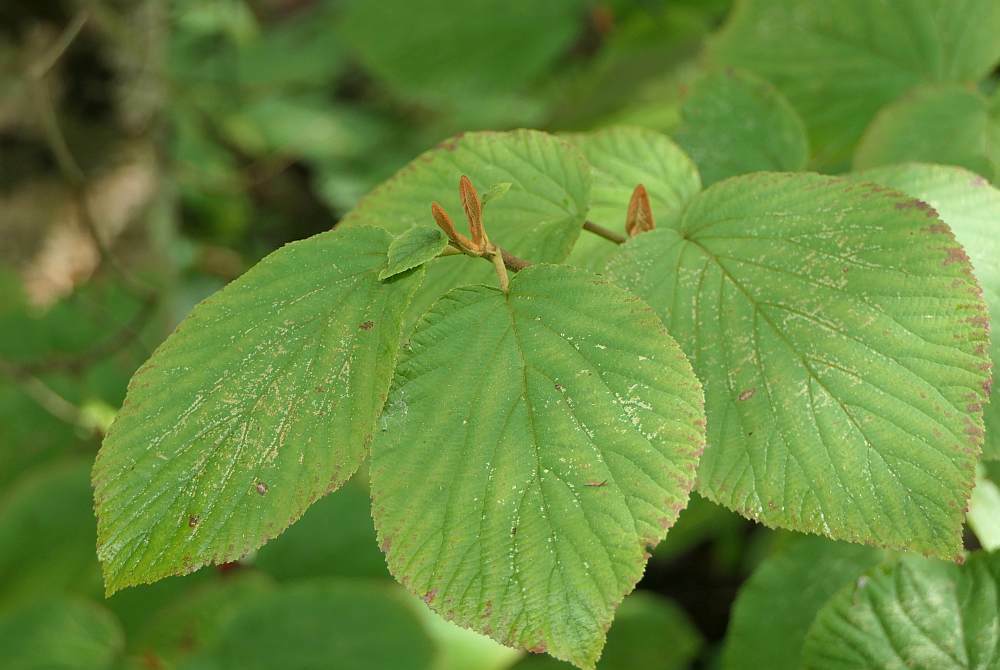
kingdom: Plantae
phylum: Tracheophyta
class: Magnoliopsida
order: Dipsacales
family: Viburnaceae
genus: Viburnum
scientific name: Viburnum lantanoides
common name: Hobblebush
